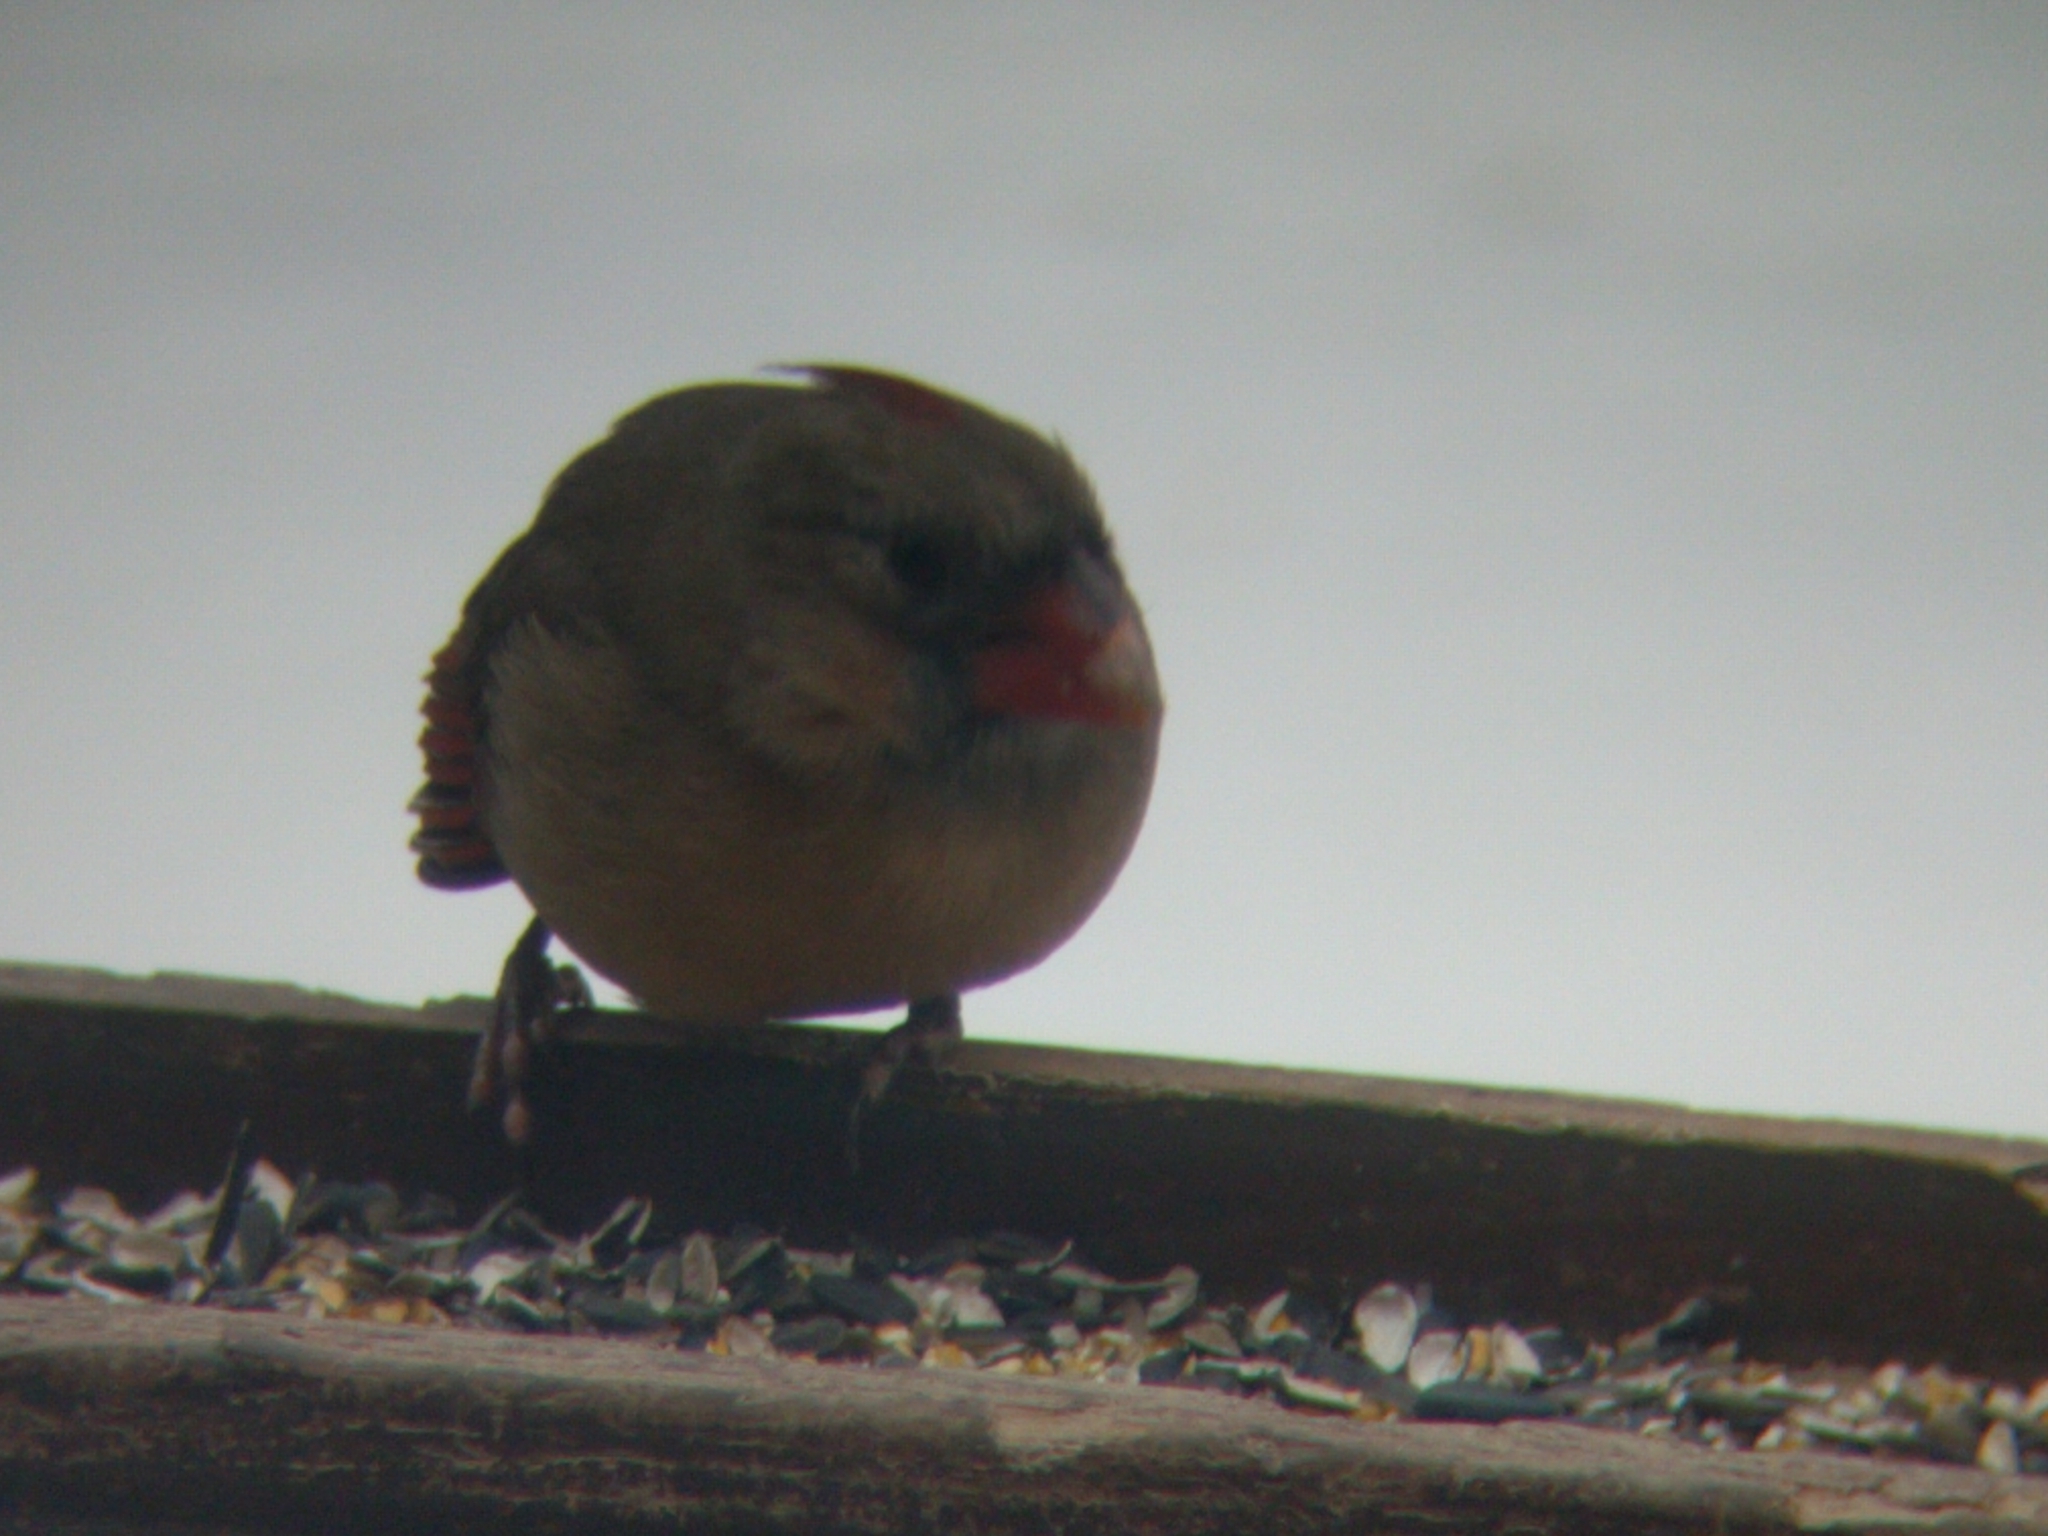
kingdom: Animalia
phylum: Chordata
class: Aves
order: Passeriformes
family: Cardinalidae
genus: Cardinalis
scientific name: Cardinalis cardinalis
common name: Northern cardinal
